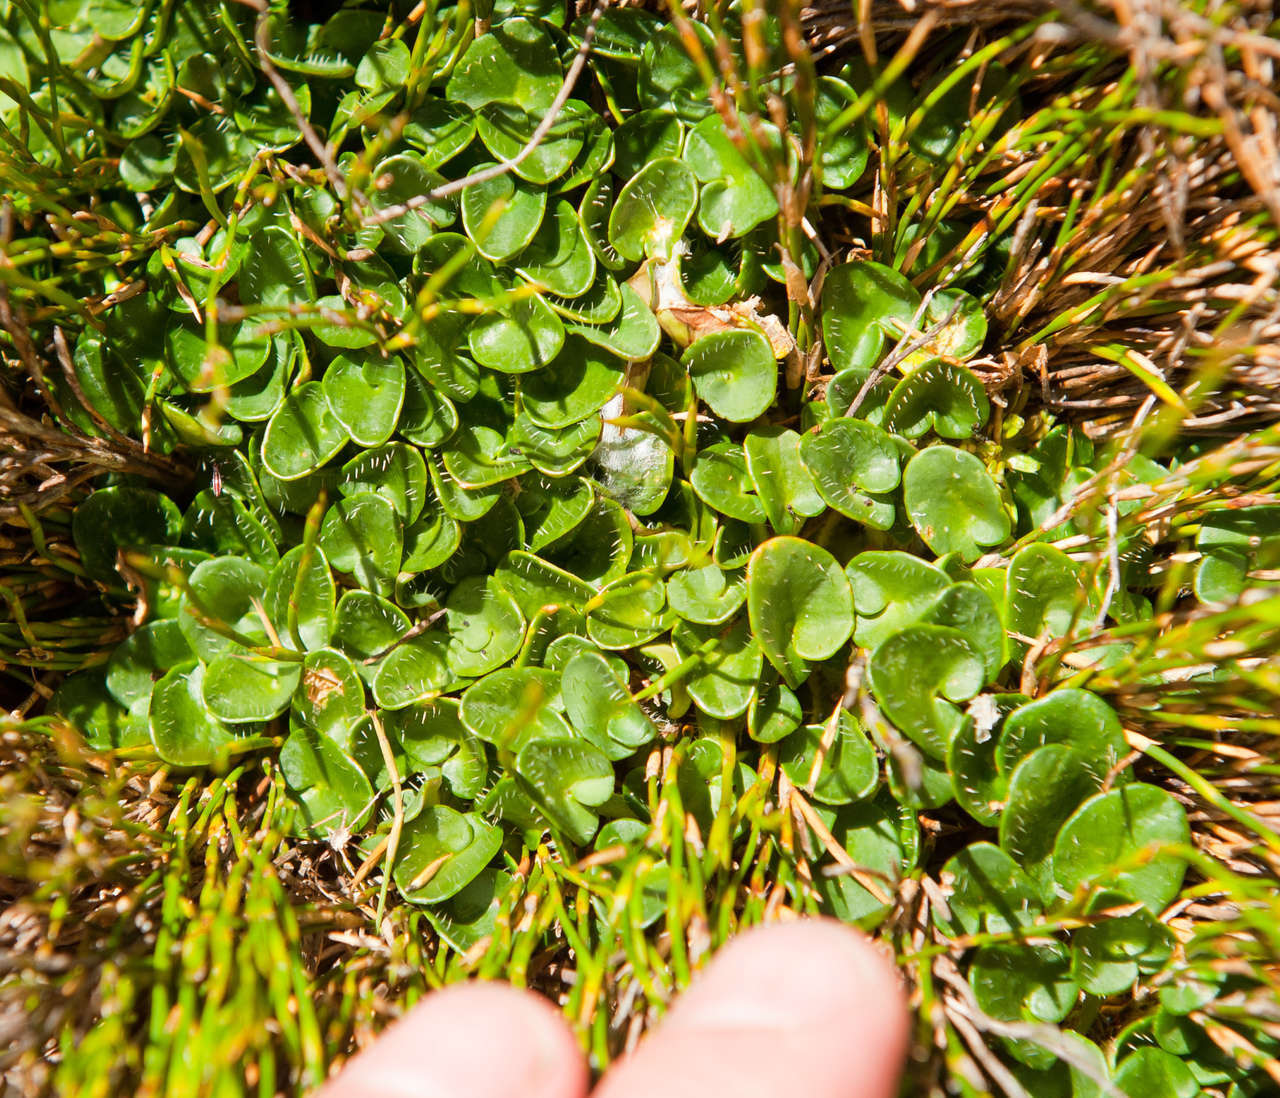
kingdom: Plantae
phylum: Tracheophyta
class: Magnoliopsida
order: Apiales
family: Apiaceae
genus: Diplaspis
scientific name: Diplaspis nivis
